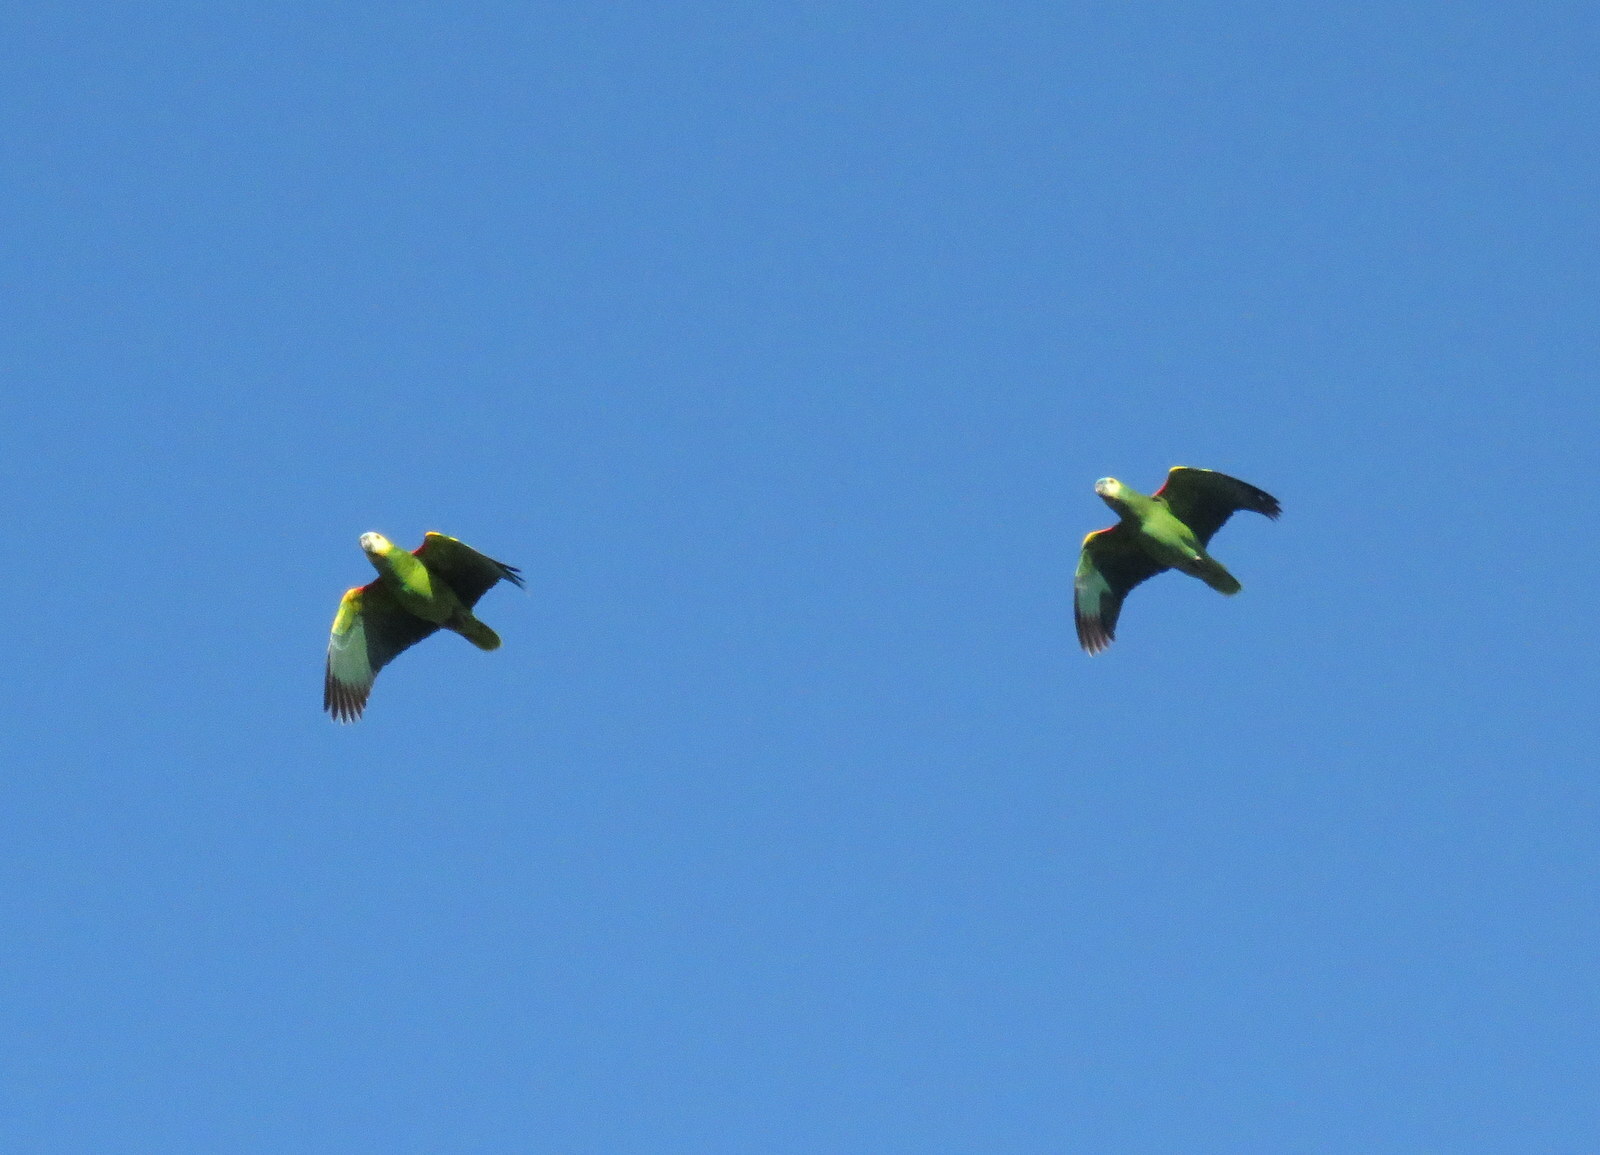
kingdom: Animalia
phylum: Chordata
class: Aves
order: Psittaciformes
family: Psittacidae
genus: Amazona
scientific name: Amazona aestiva
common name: Turquoise-fronted amazon
